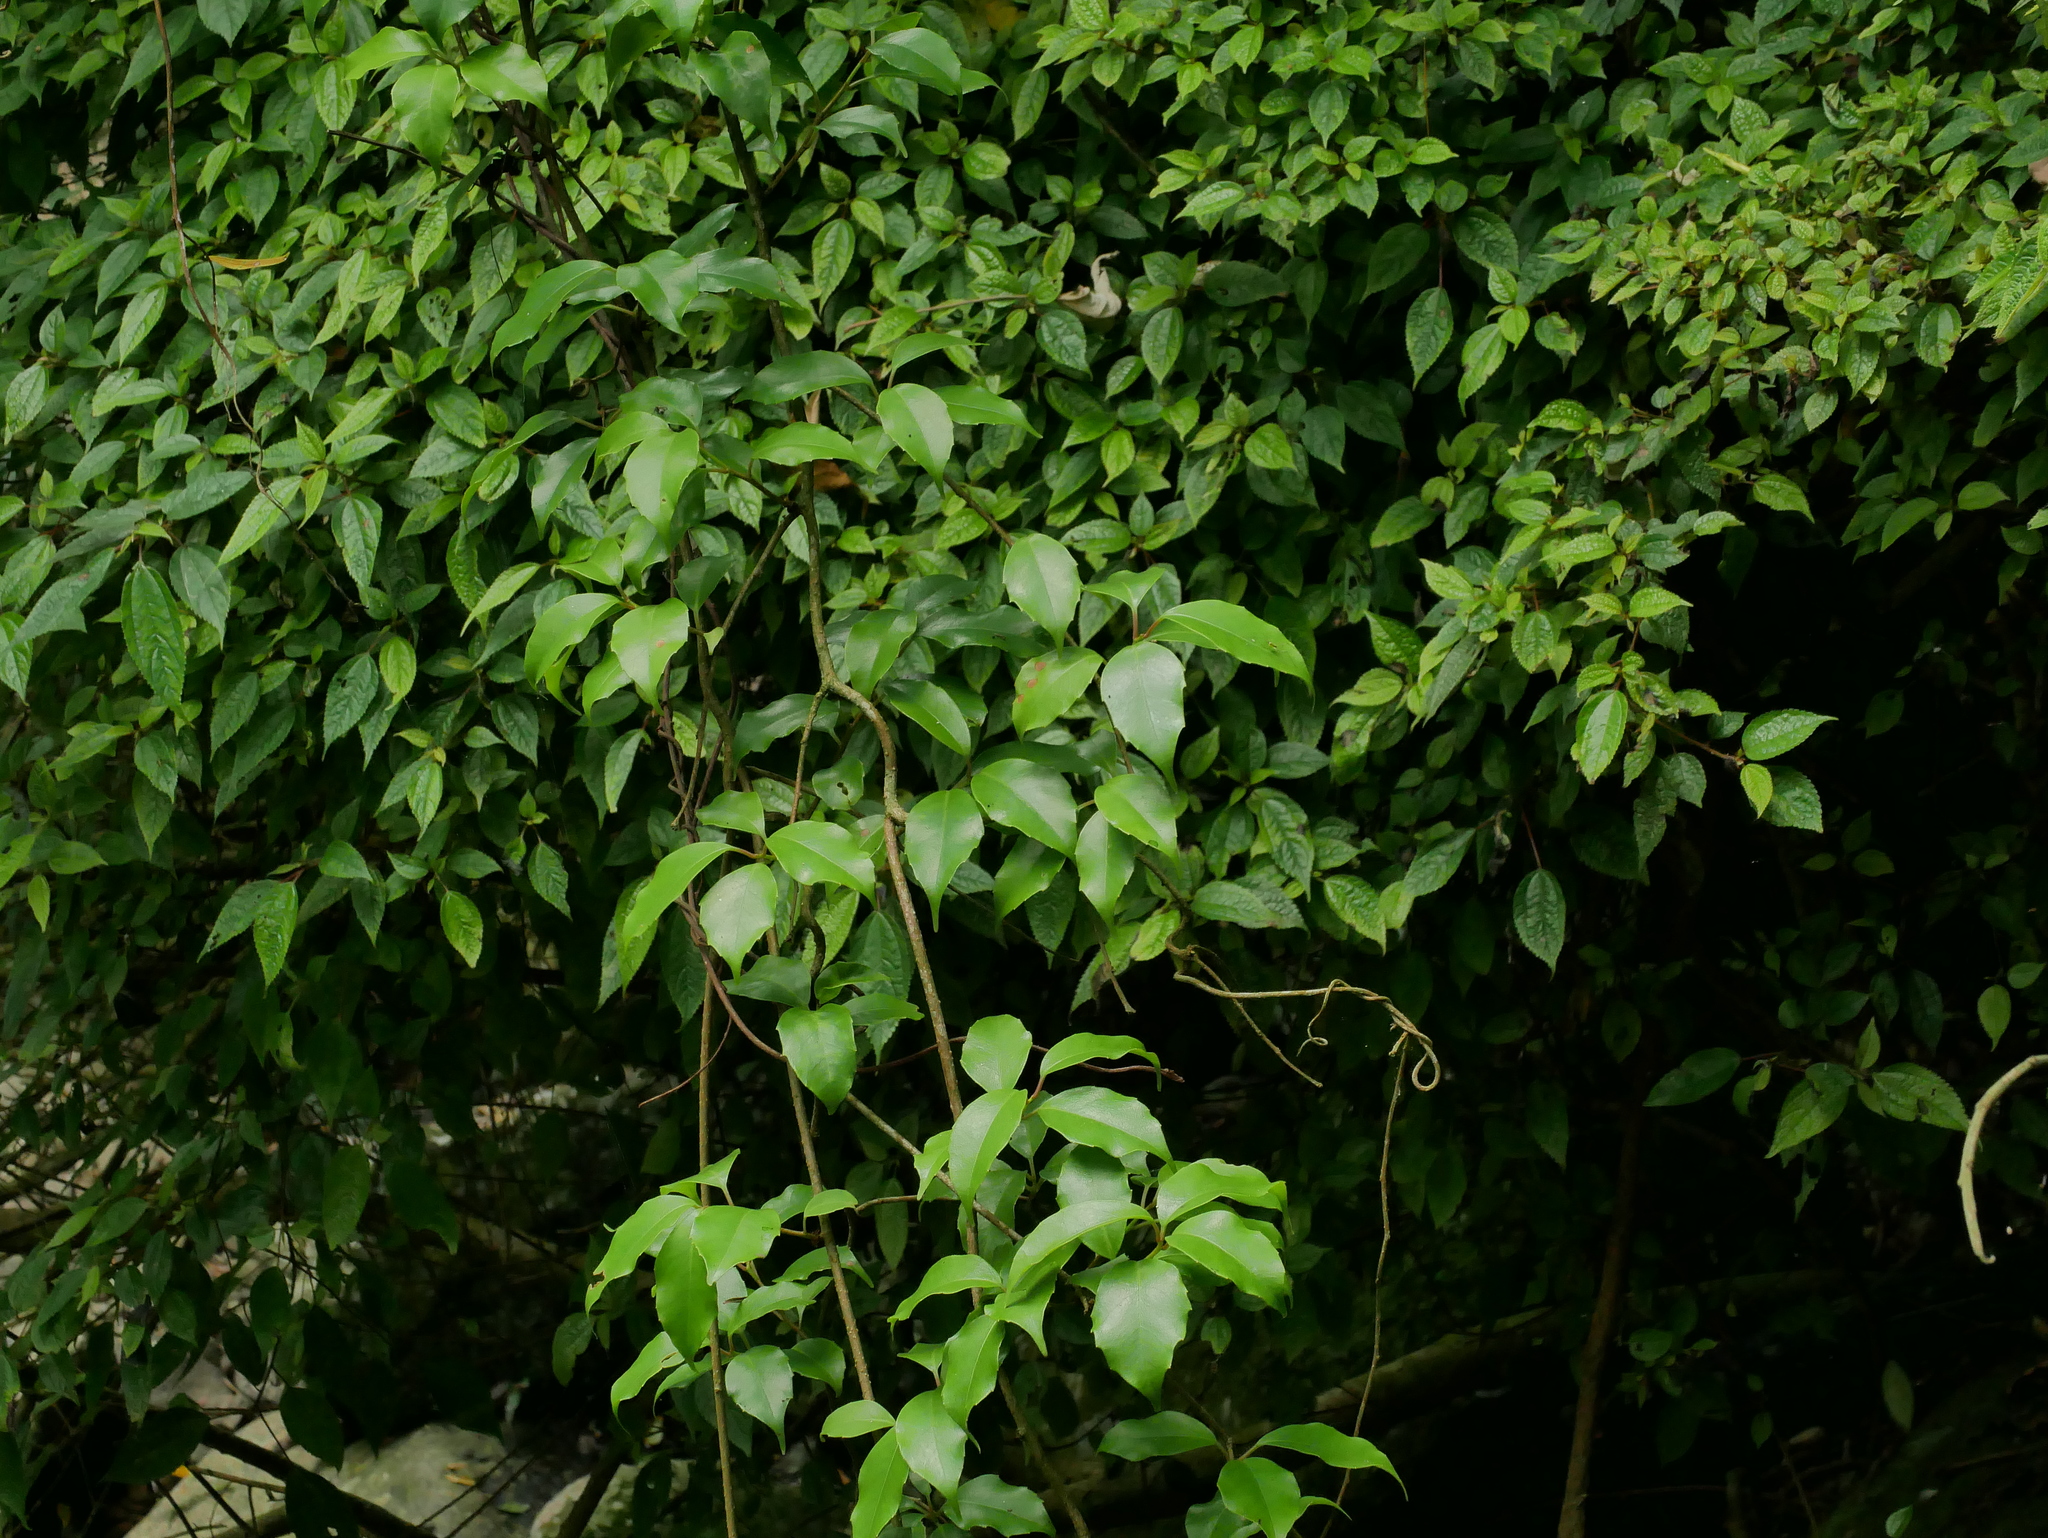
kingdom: Plantae
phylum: Tracheophyta
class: Magnoliopsida
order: Austrobaileyales
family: Schisandraceae
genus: Kadsura
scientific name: Kadsura matsudae
